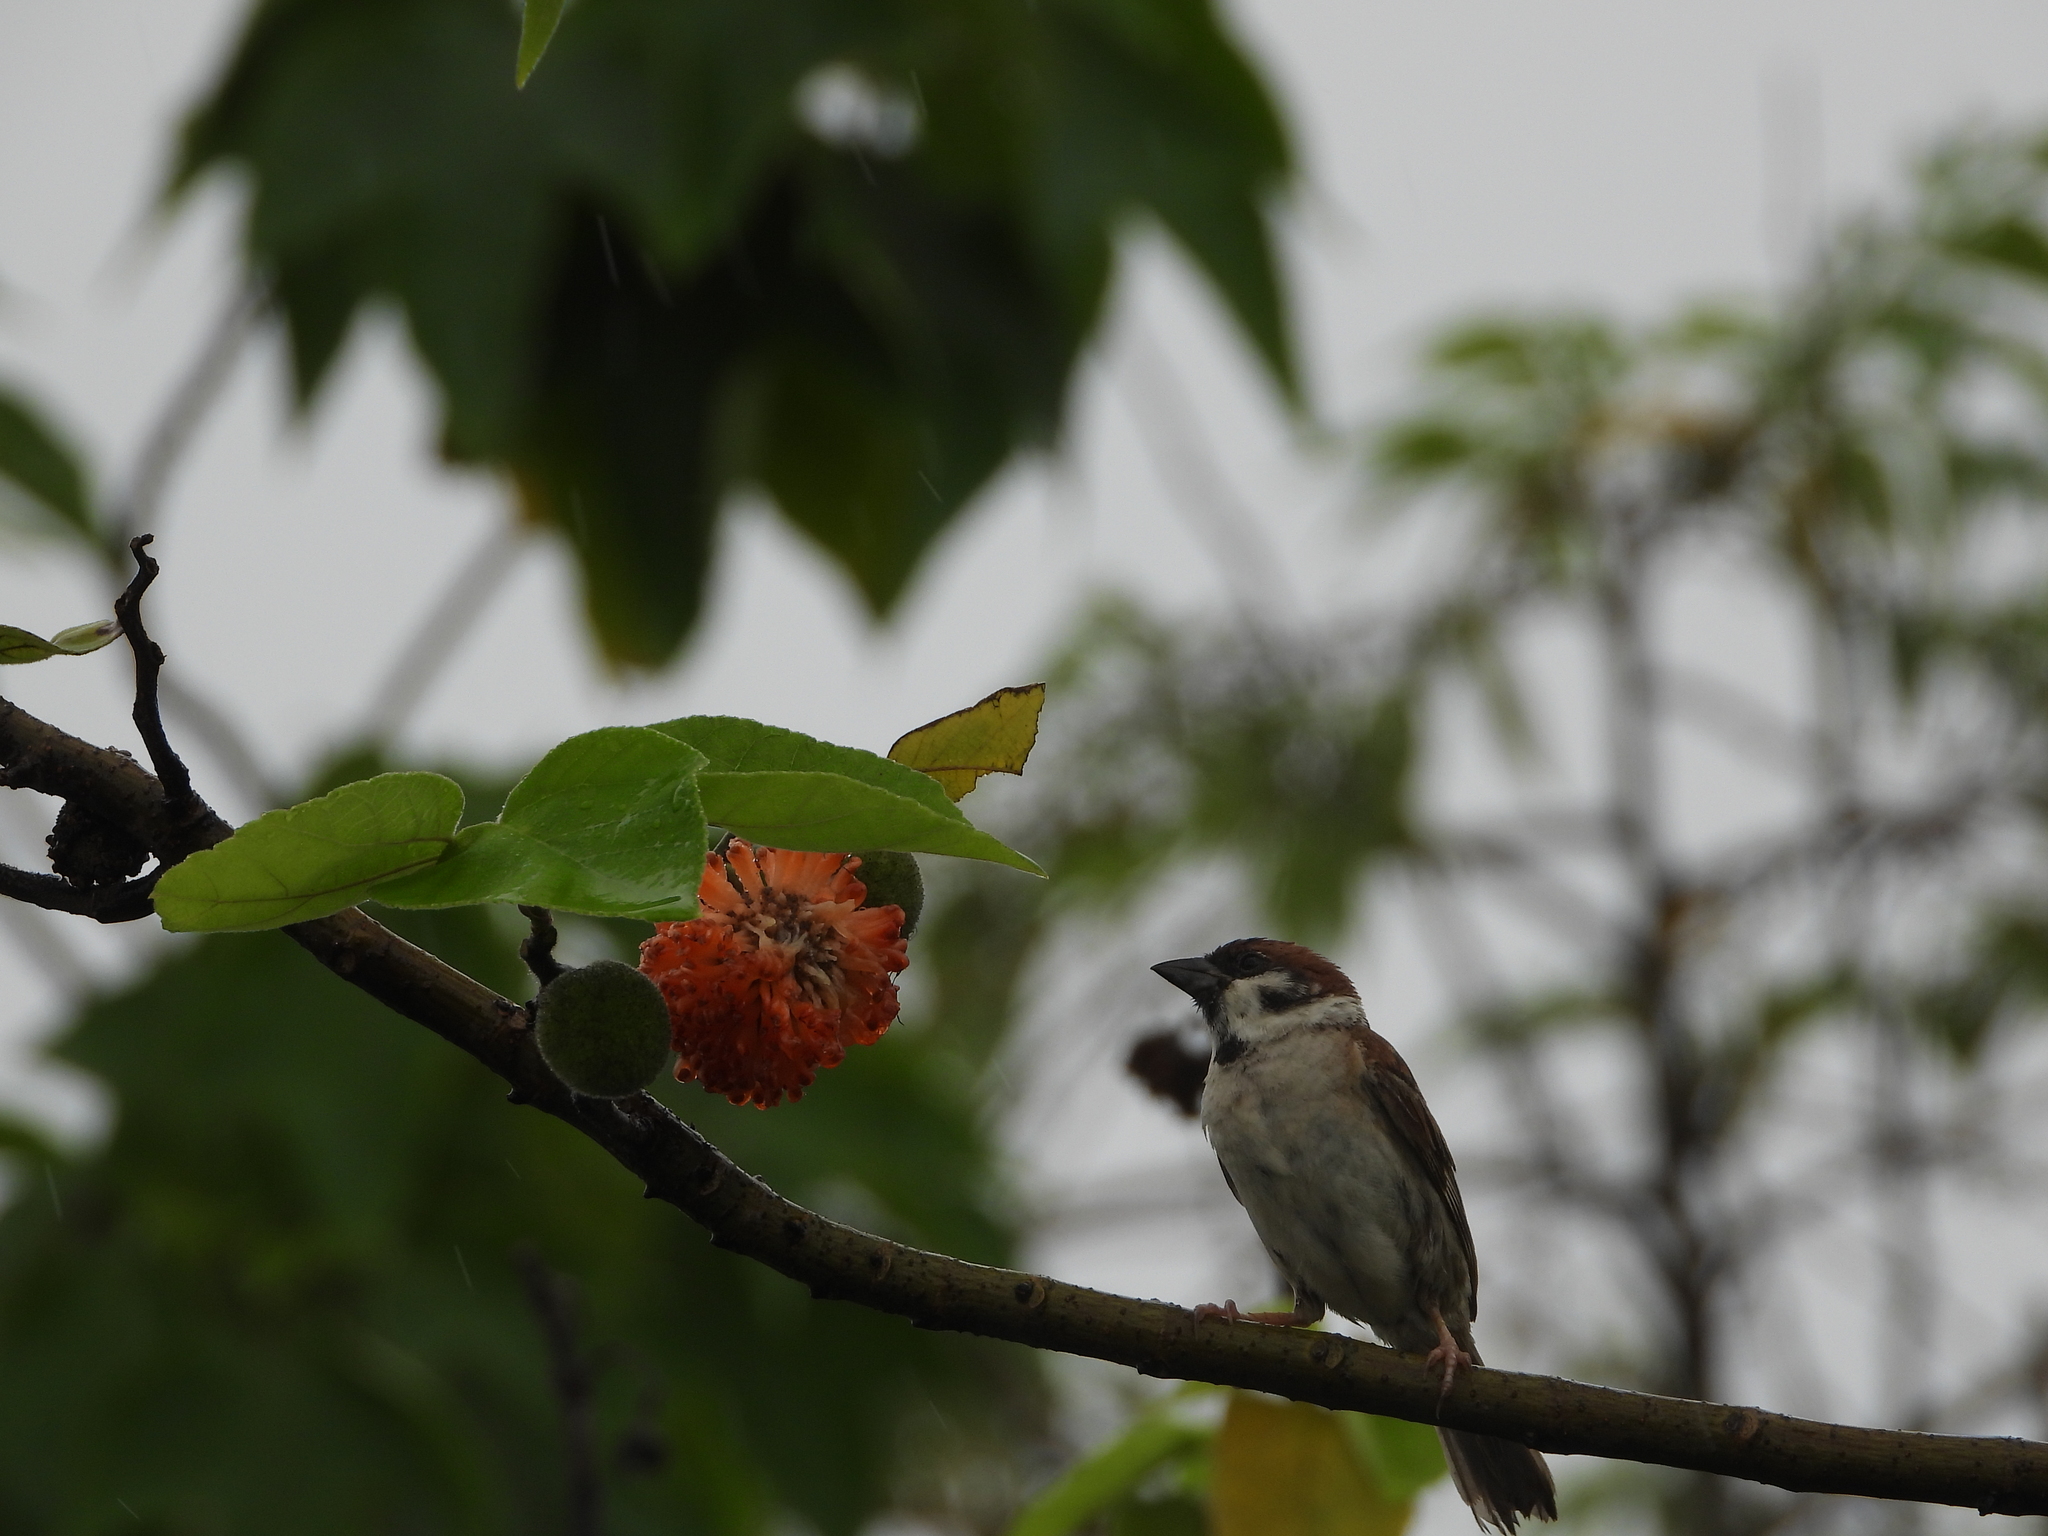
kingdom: Animalia
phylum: Chordata
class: Aves
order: Passeriformes
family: Passeridae
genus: Passer
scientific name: Passer montanus
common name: Eurasian tree sparrow
